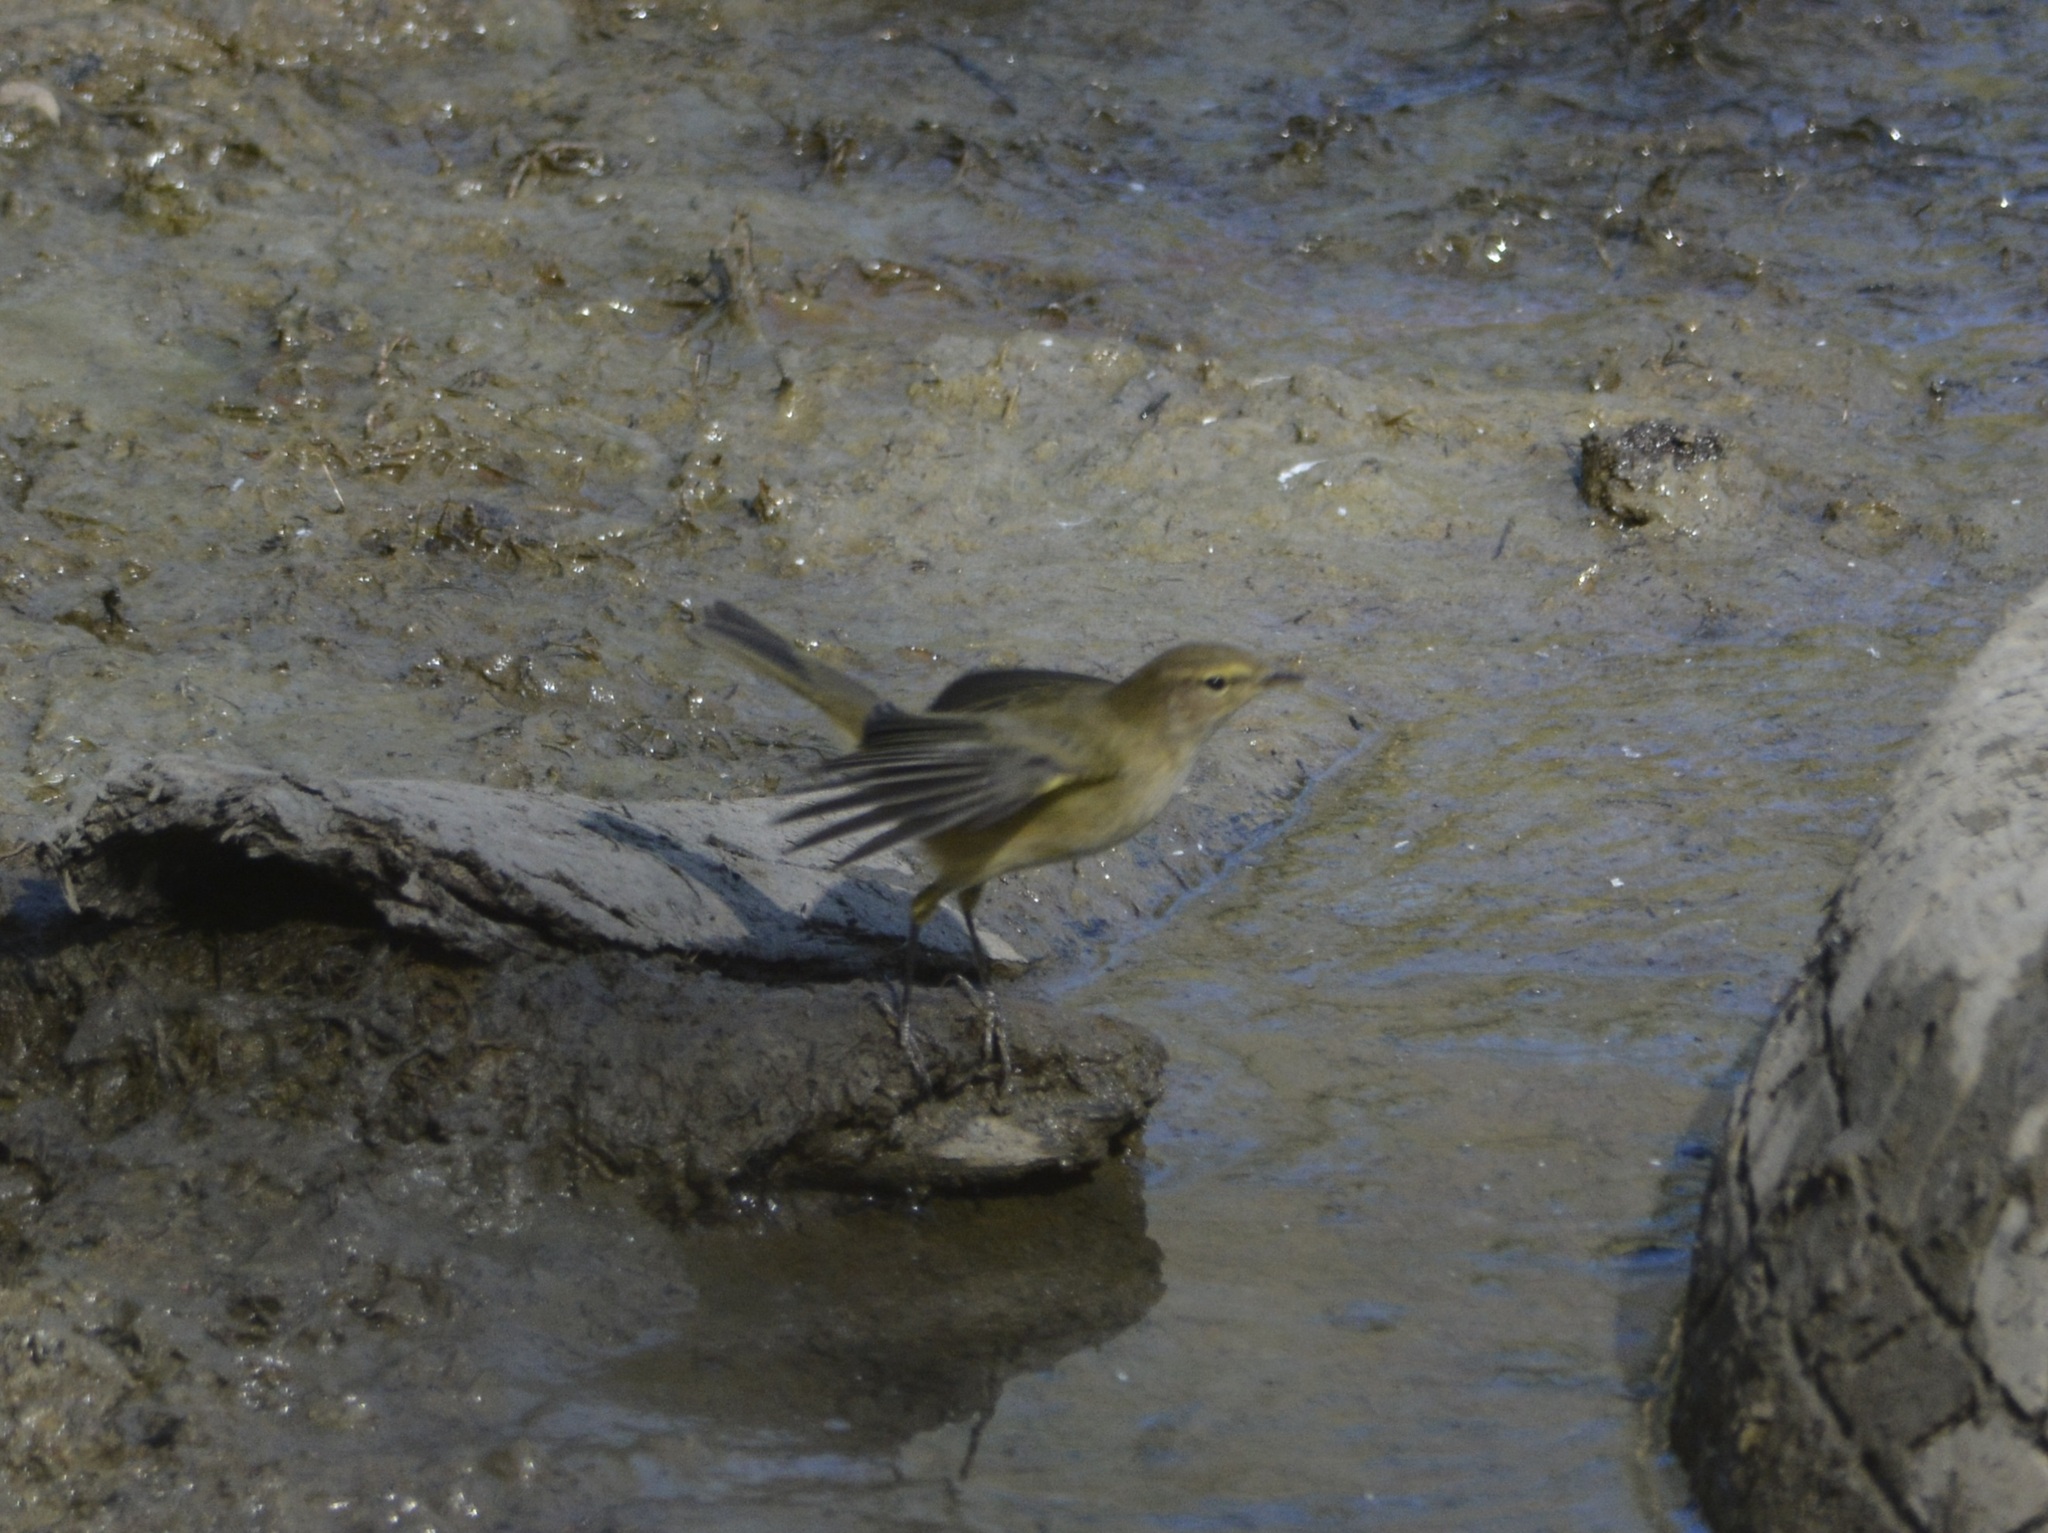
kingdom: Animalia
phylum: Chordata
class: Aves
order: Passeriformes
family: Phylloscopidae
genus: Phylloscopus
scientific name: Phylloscopus collybita
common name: Common chiffchaff
